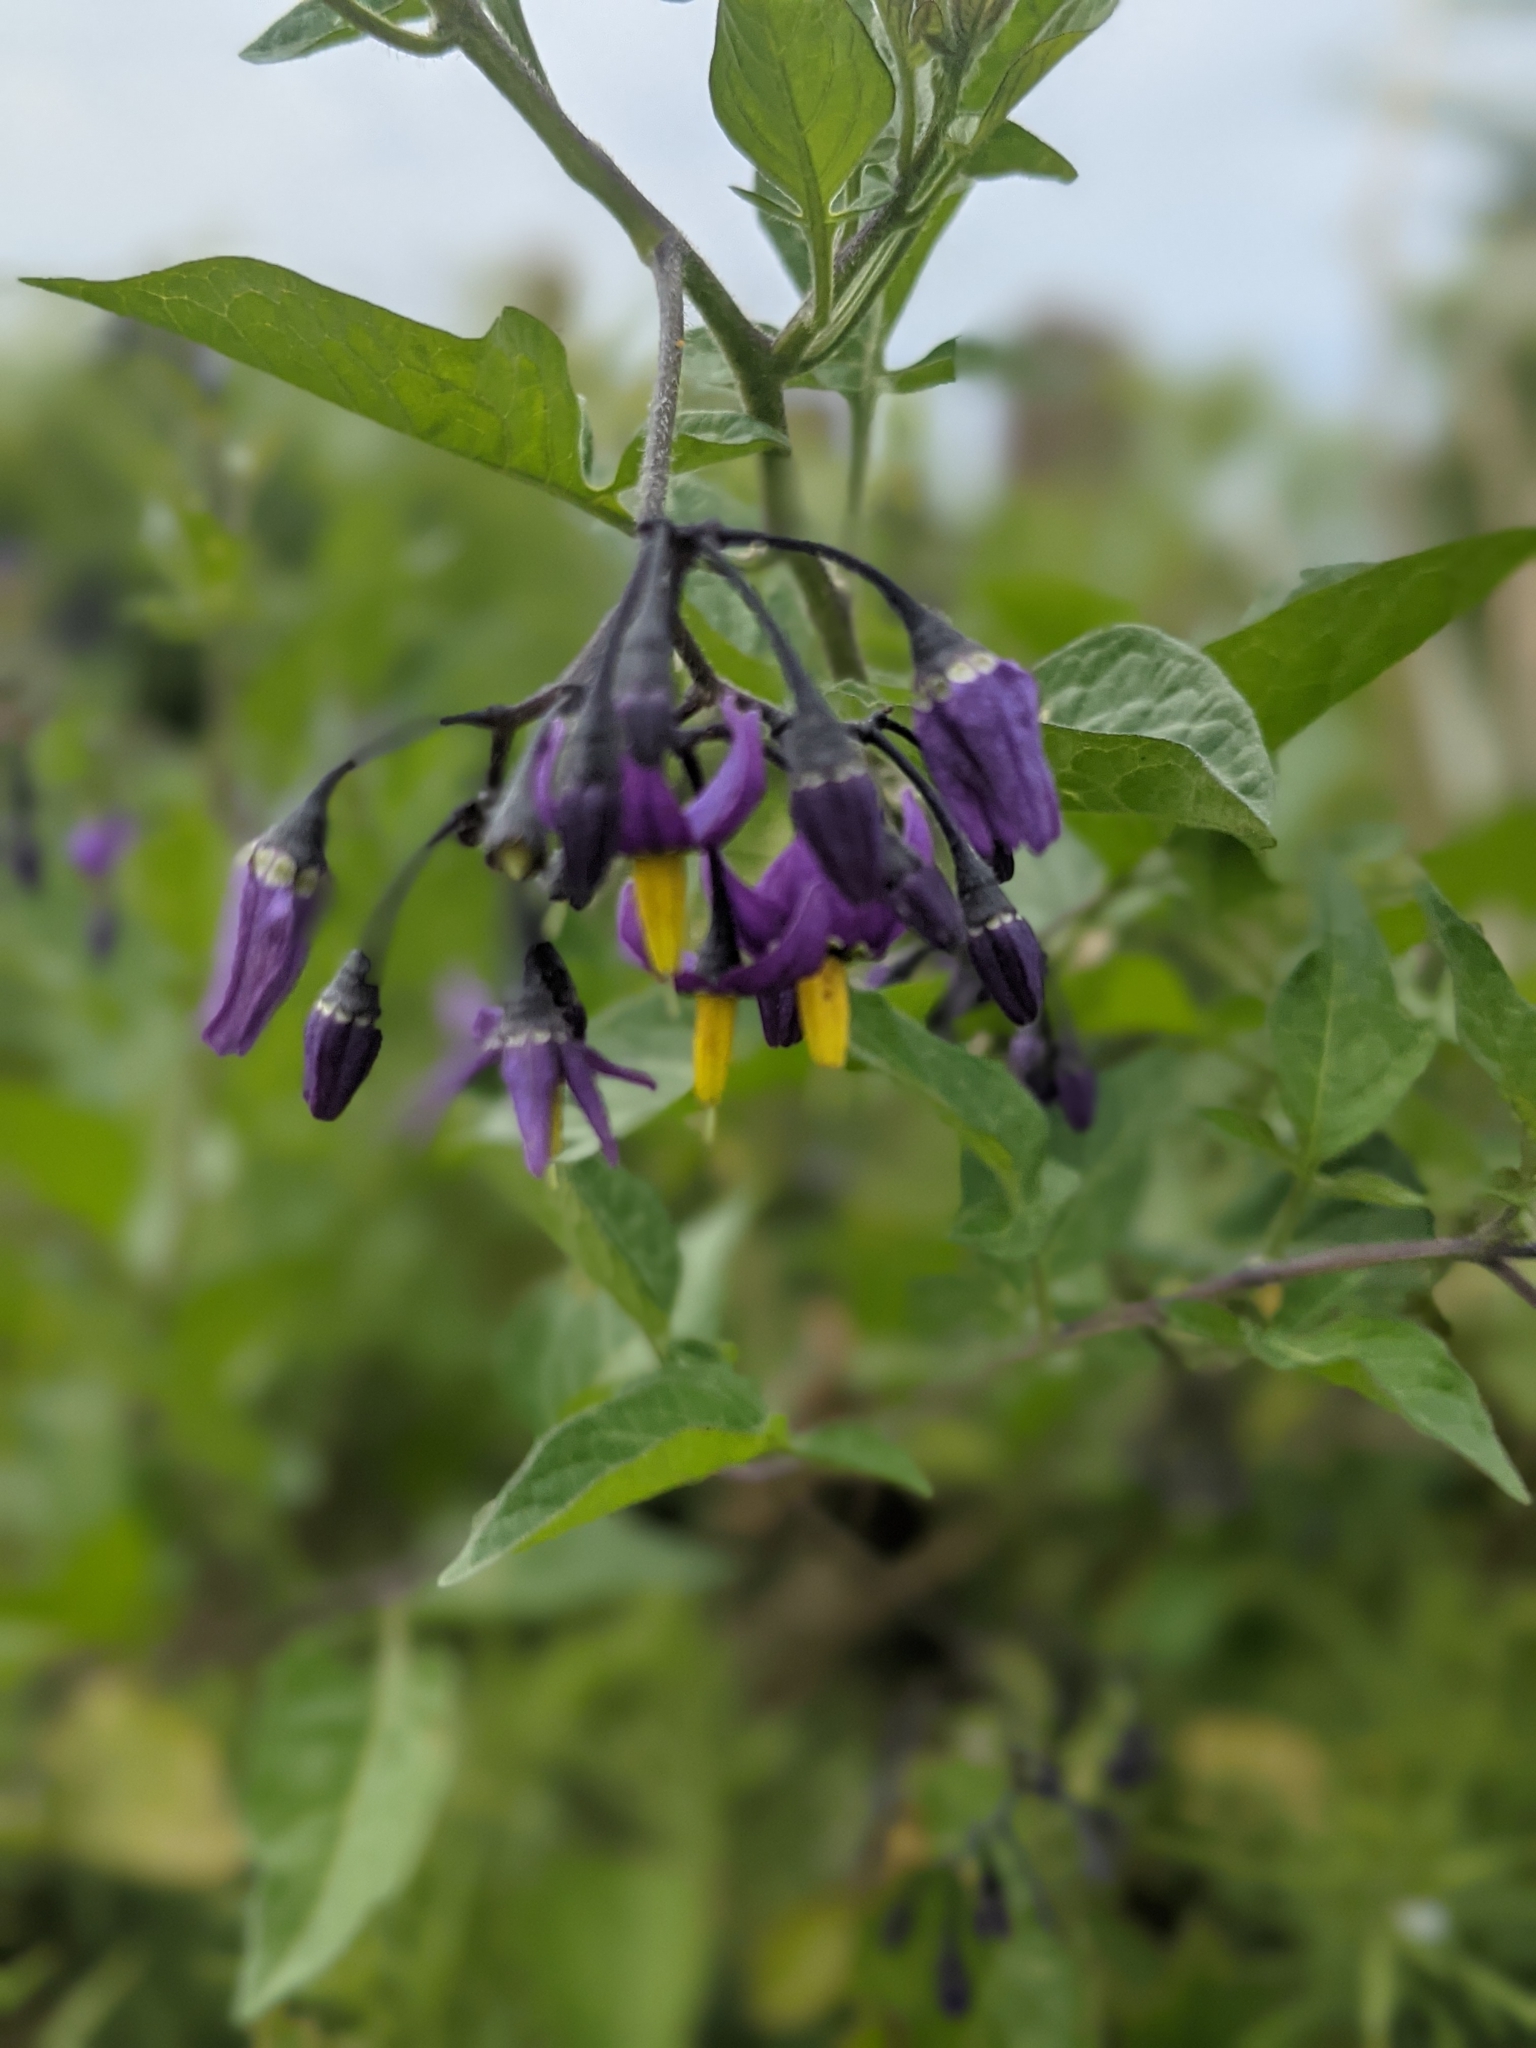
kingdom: Plantae
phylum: Tracheophyta
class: Magnoliopsida
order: Solanales
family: Solanaceae
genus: Solanum
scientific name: Solanum dulcamara
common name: Climbing nightshade
